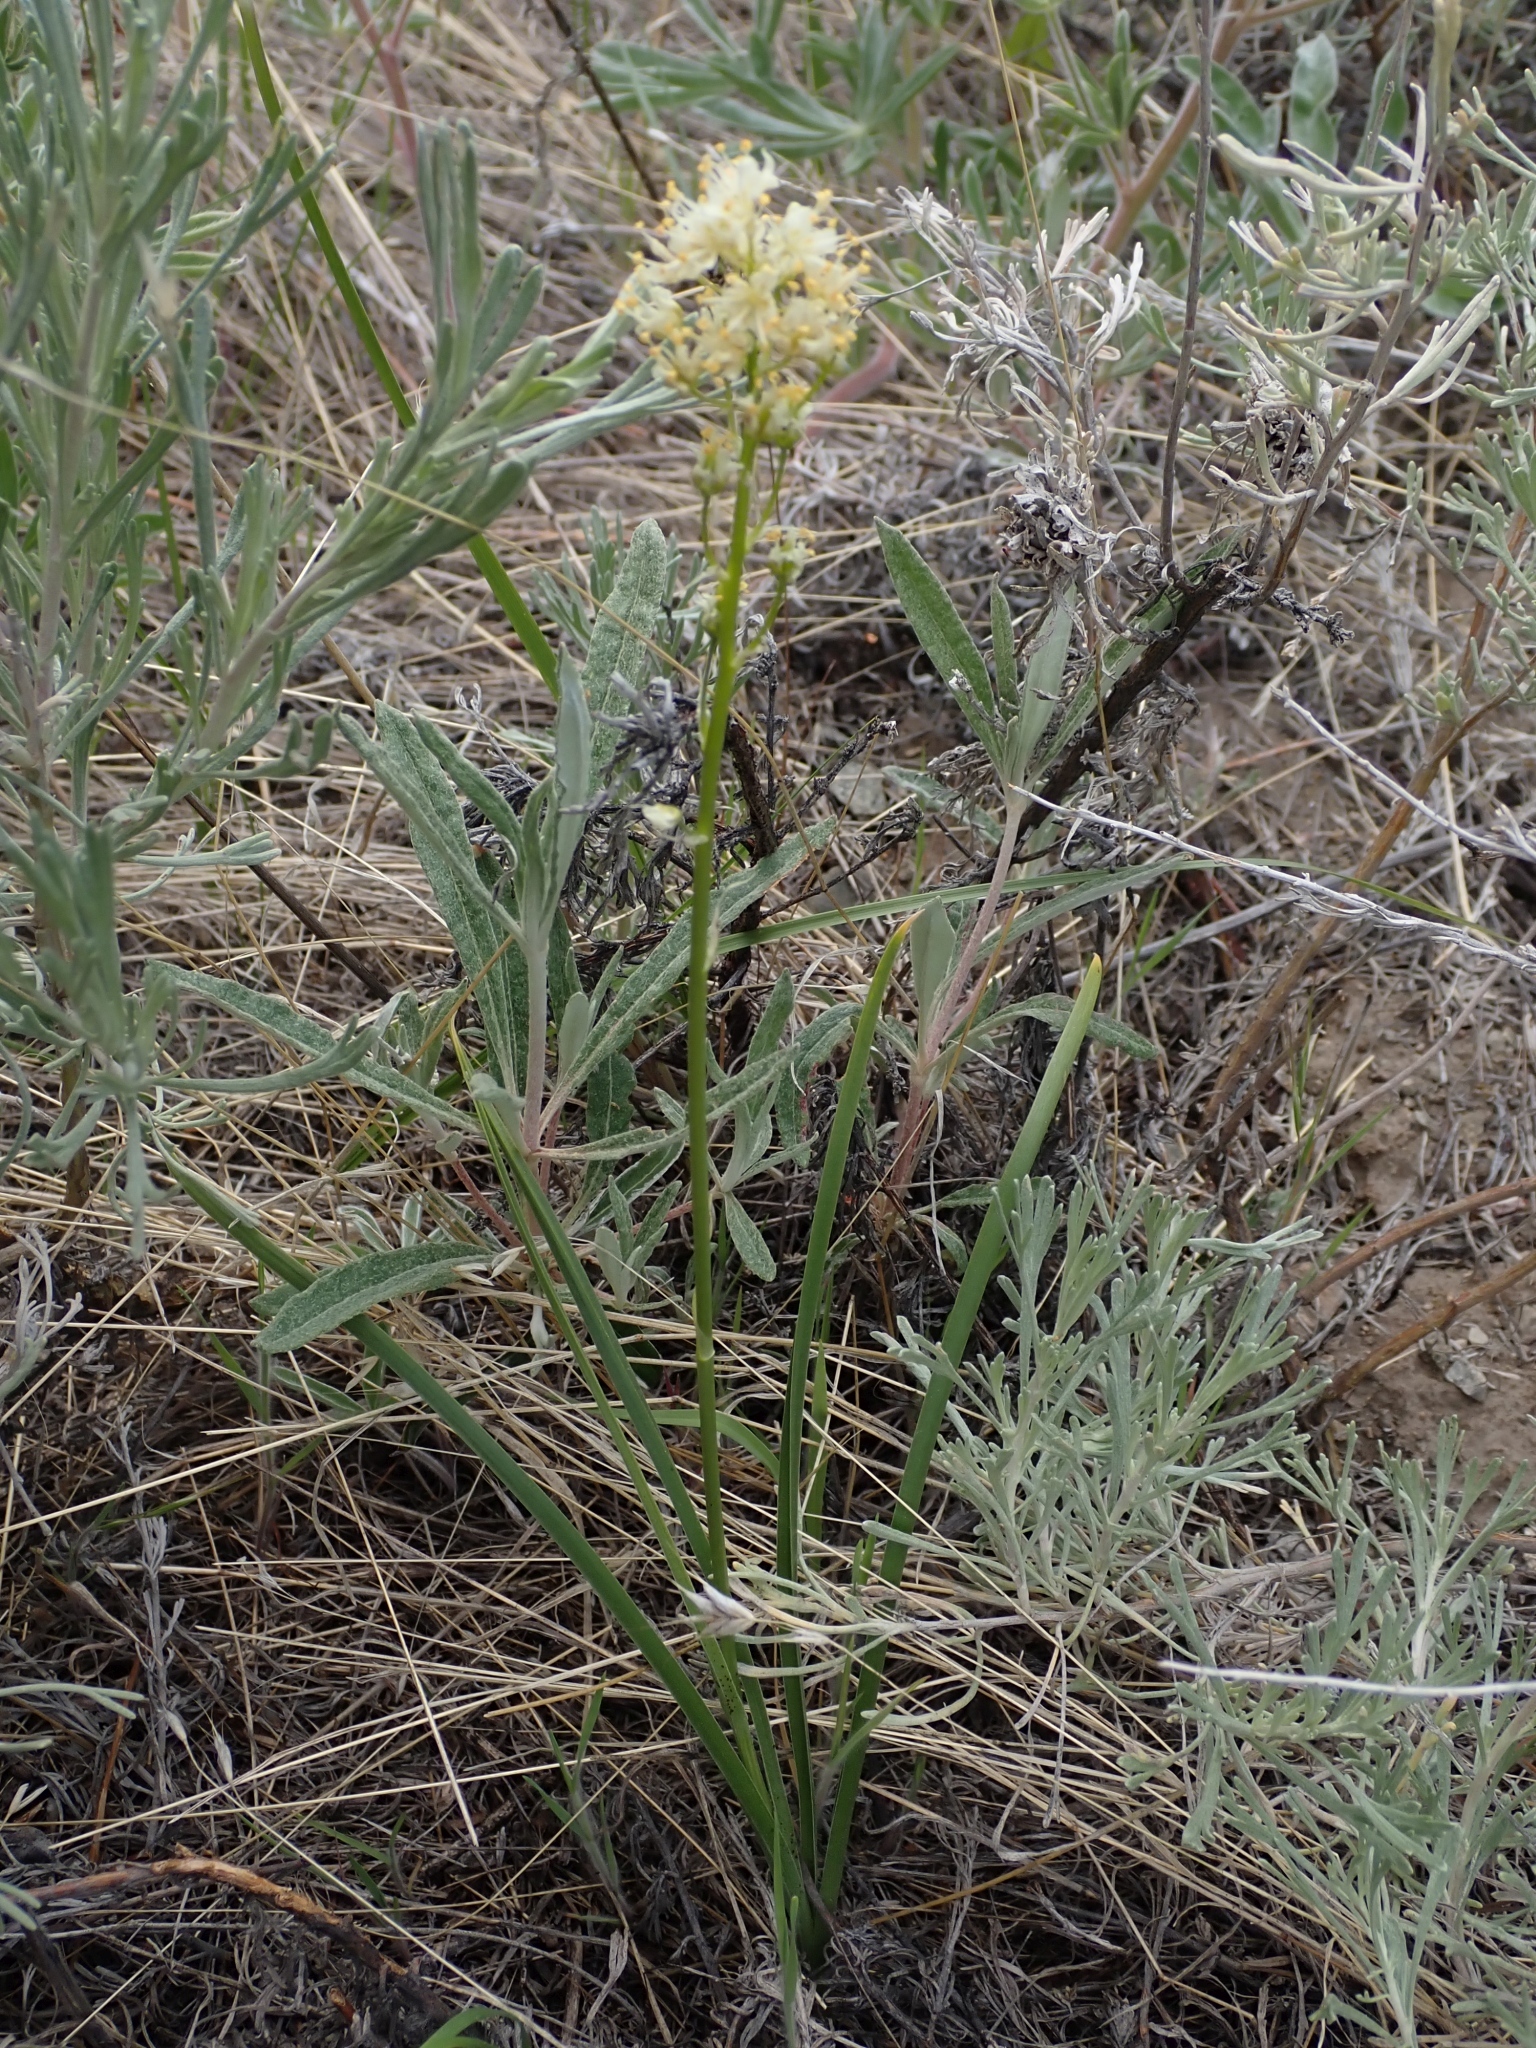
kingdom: Plantae
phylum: Tracheophyta
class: Liliopsida
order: Liliales
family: Melanthiaceae
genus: Toxicoscordion
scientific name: Toxicoscordion venenosum
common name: Meadow death camas
